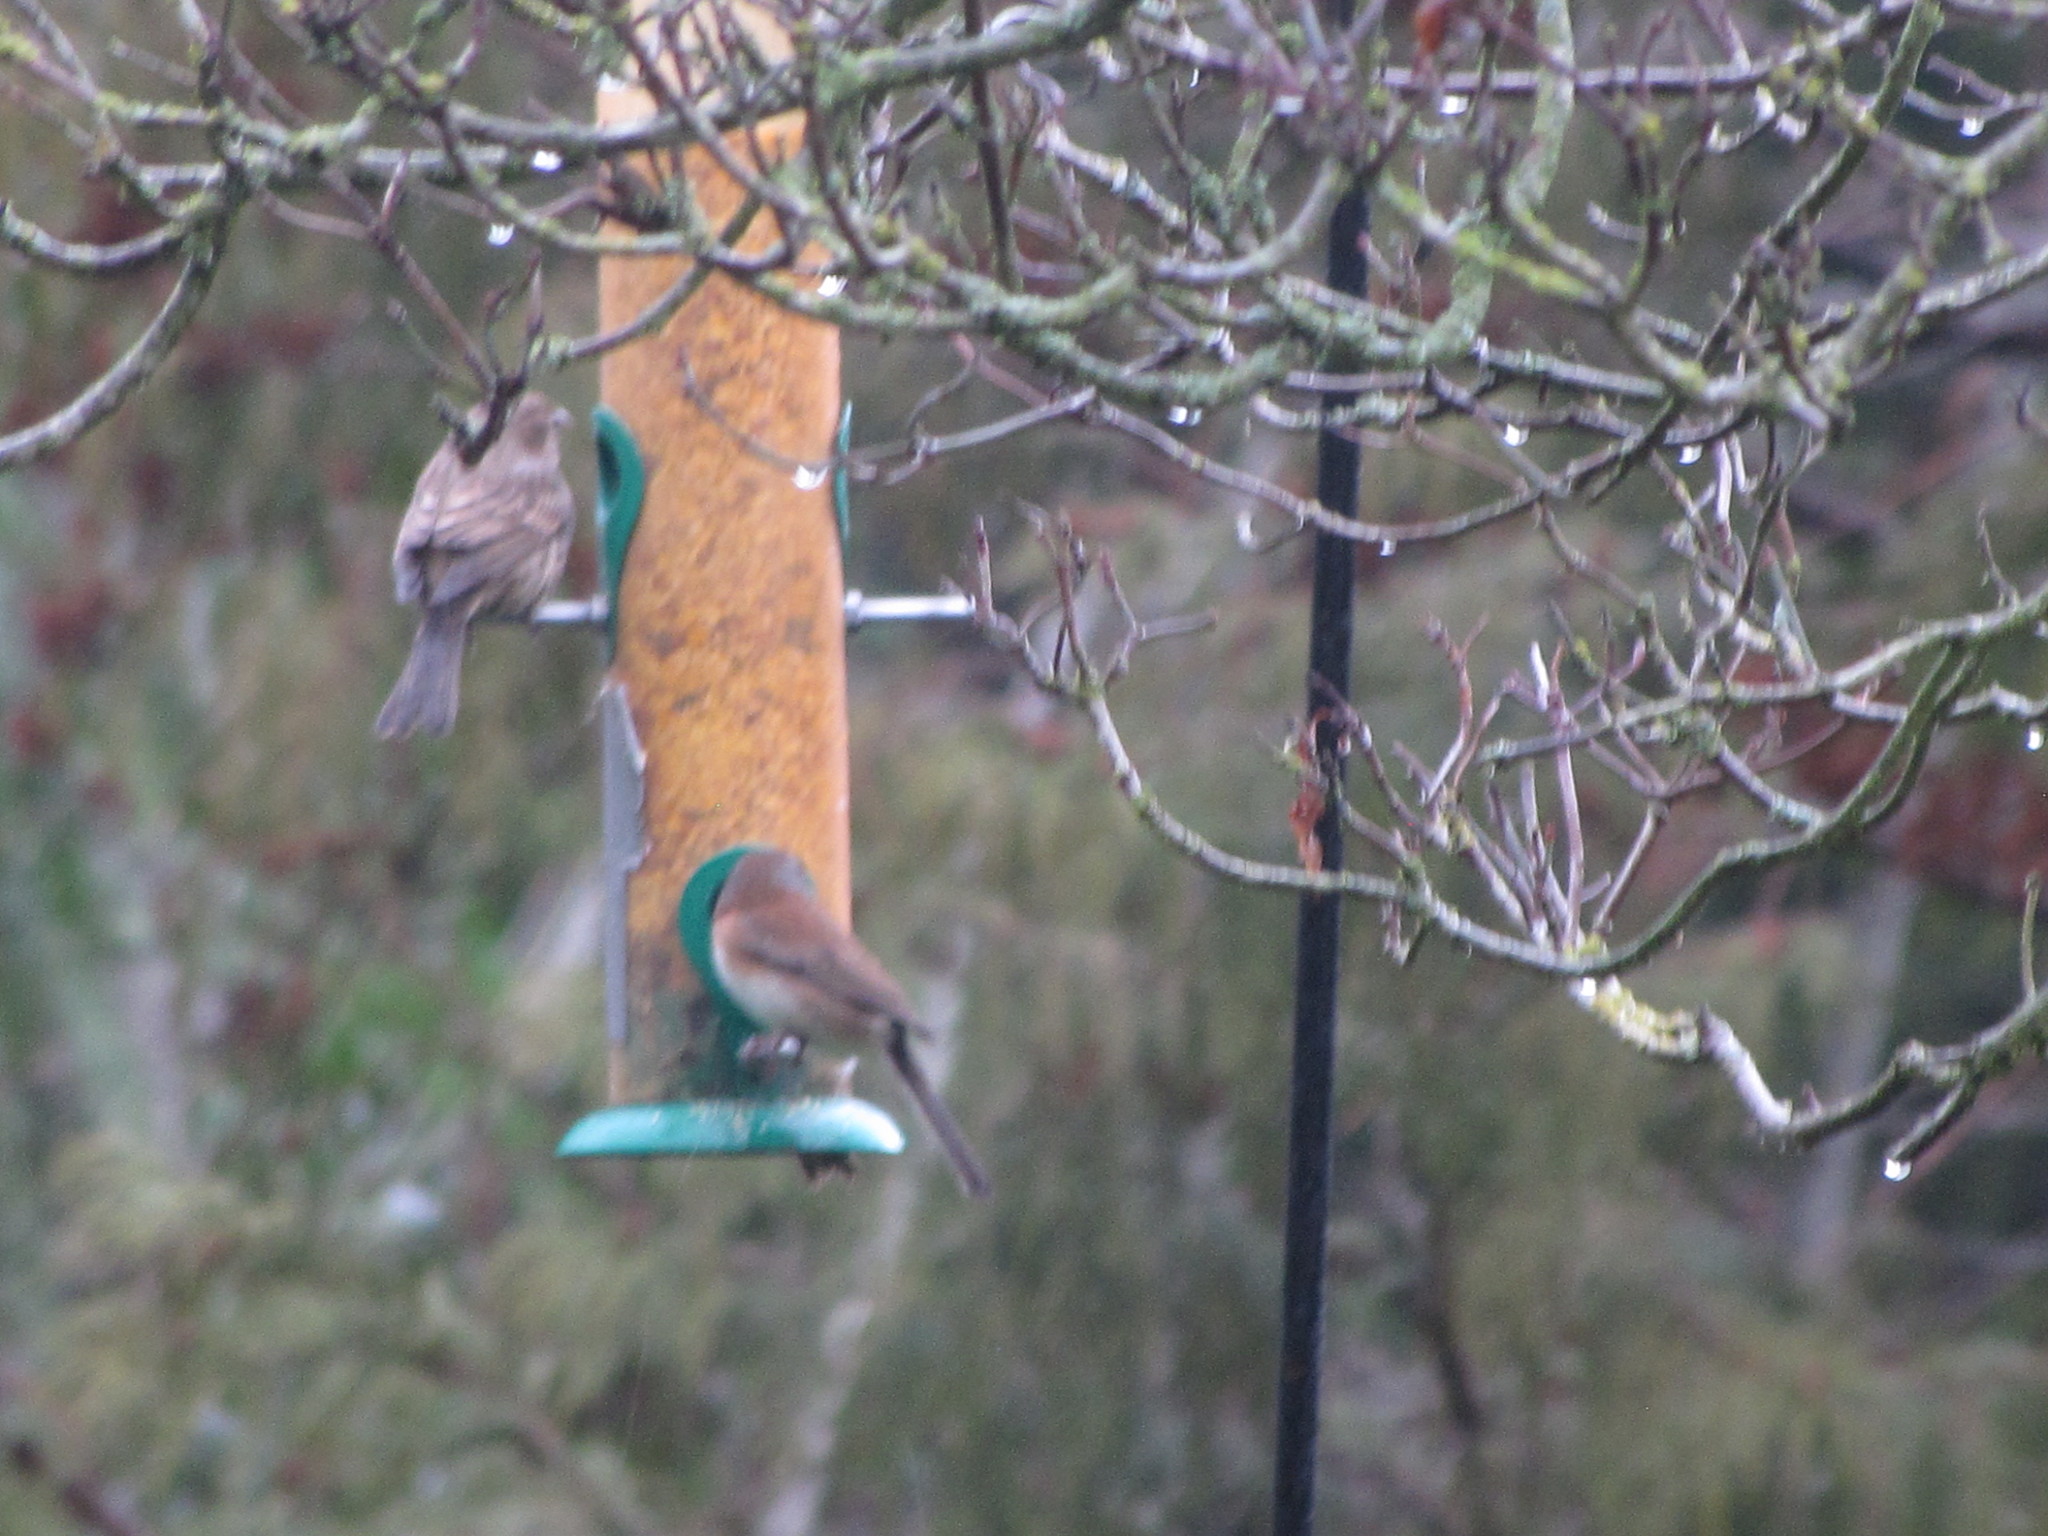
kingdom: Animalia
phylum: Chordata
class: Aves
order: Passeriformes
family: Passerellidae
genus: Junco
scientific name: Junco hyemalis
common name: Dark-eyed junco
